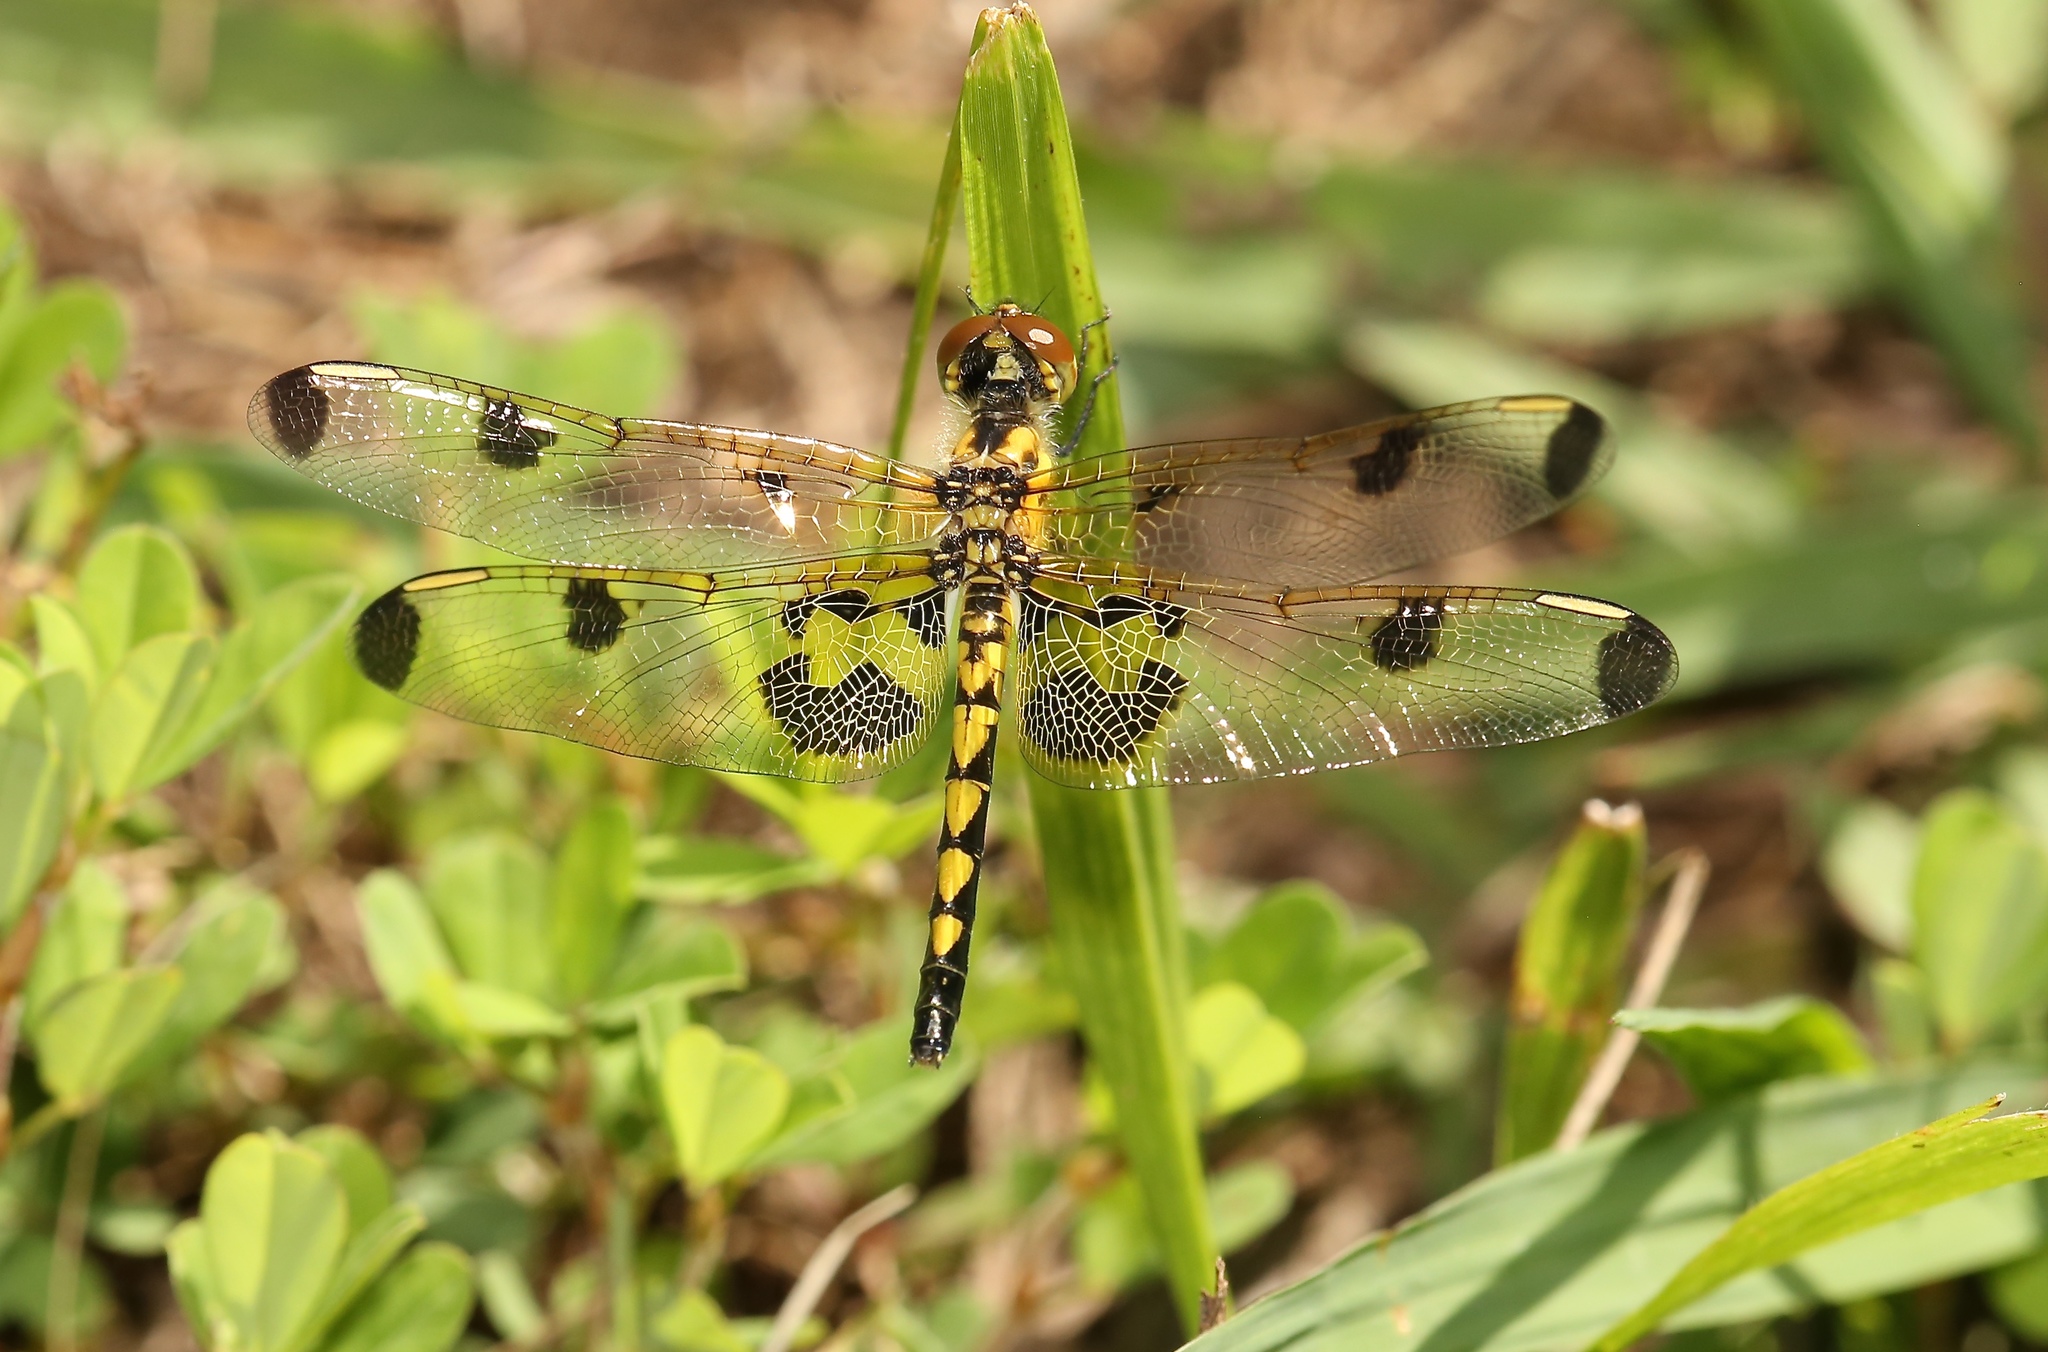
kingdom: Animalia
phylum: Arthropoda
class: Insecta
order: Odonata
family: Libellulidae
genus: Celithemis
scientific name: Celithemis elisa
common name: Calico pennant
